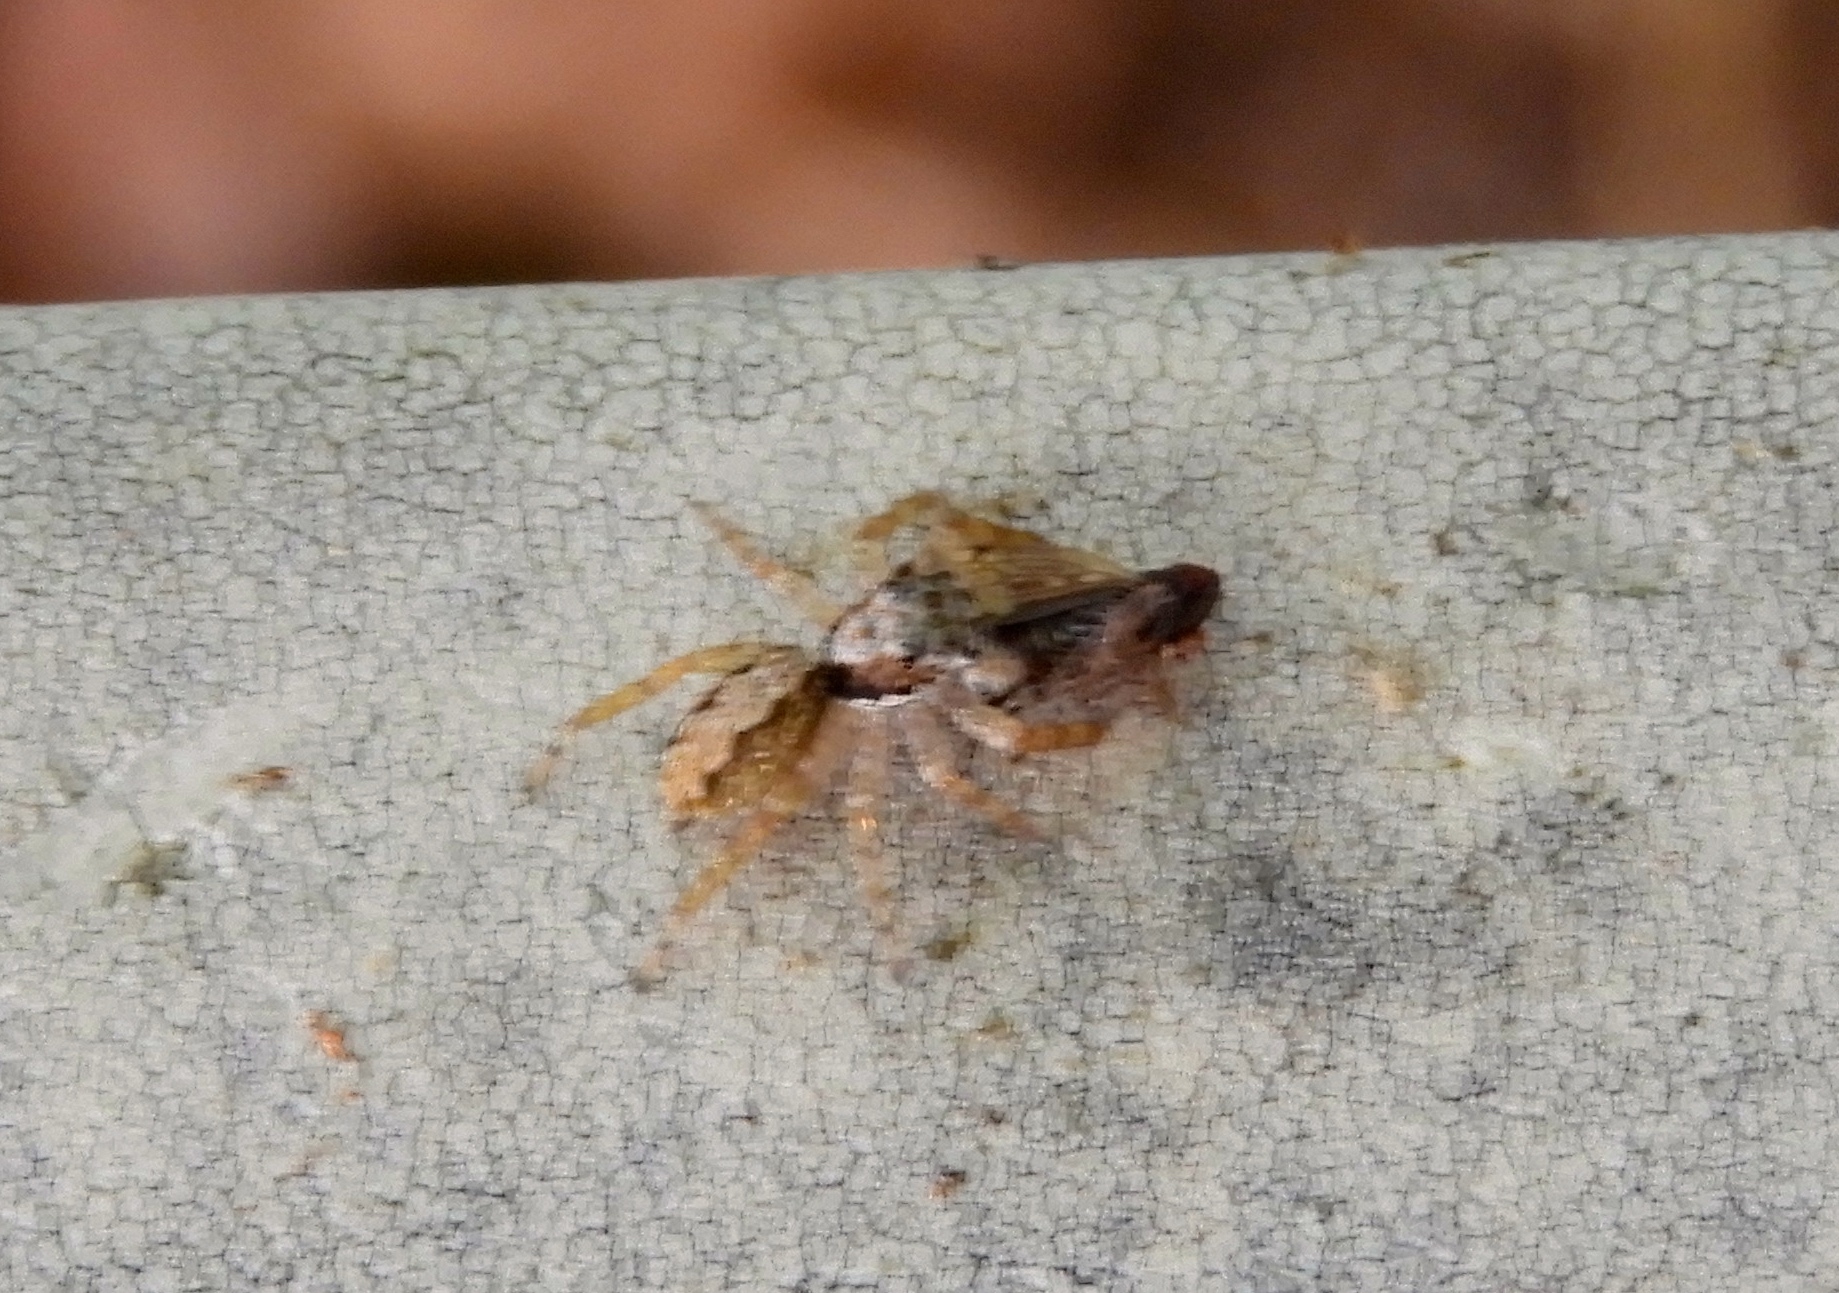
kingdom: Animalia
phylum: Arthropoda
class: Arachnida
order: Araneae
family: Salticidae
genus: Balmaceda
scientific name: Balmaceda
